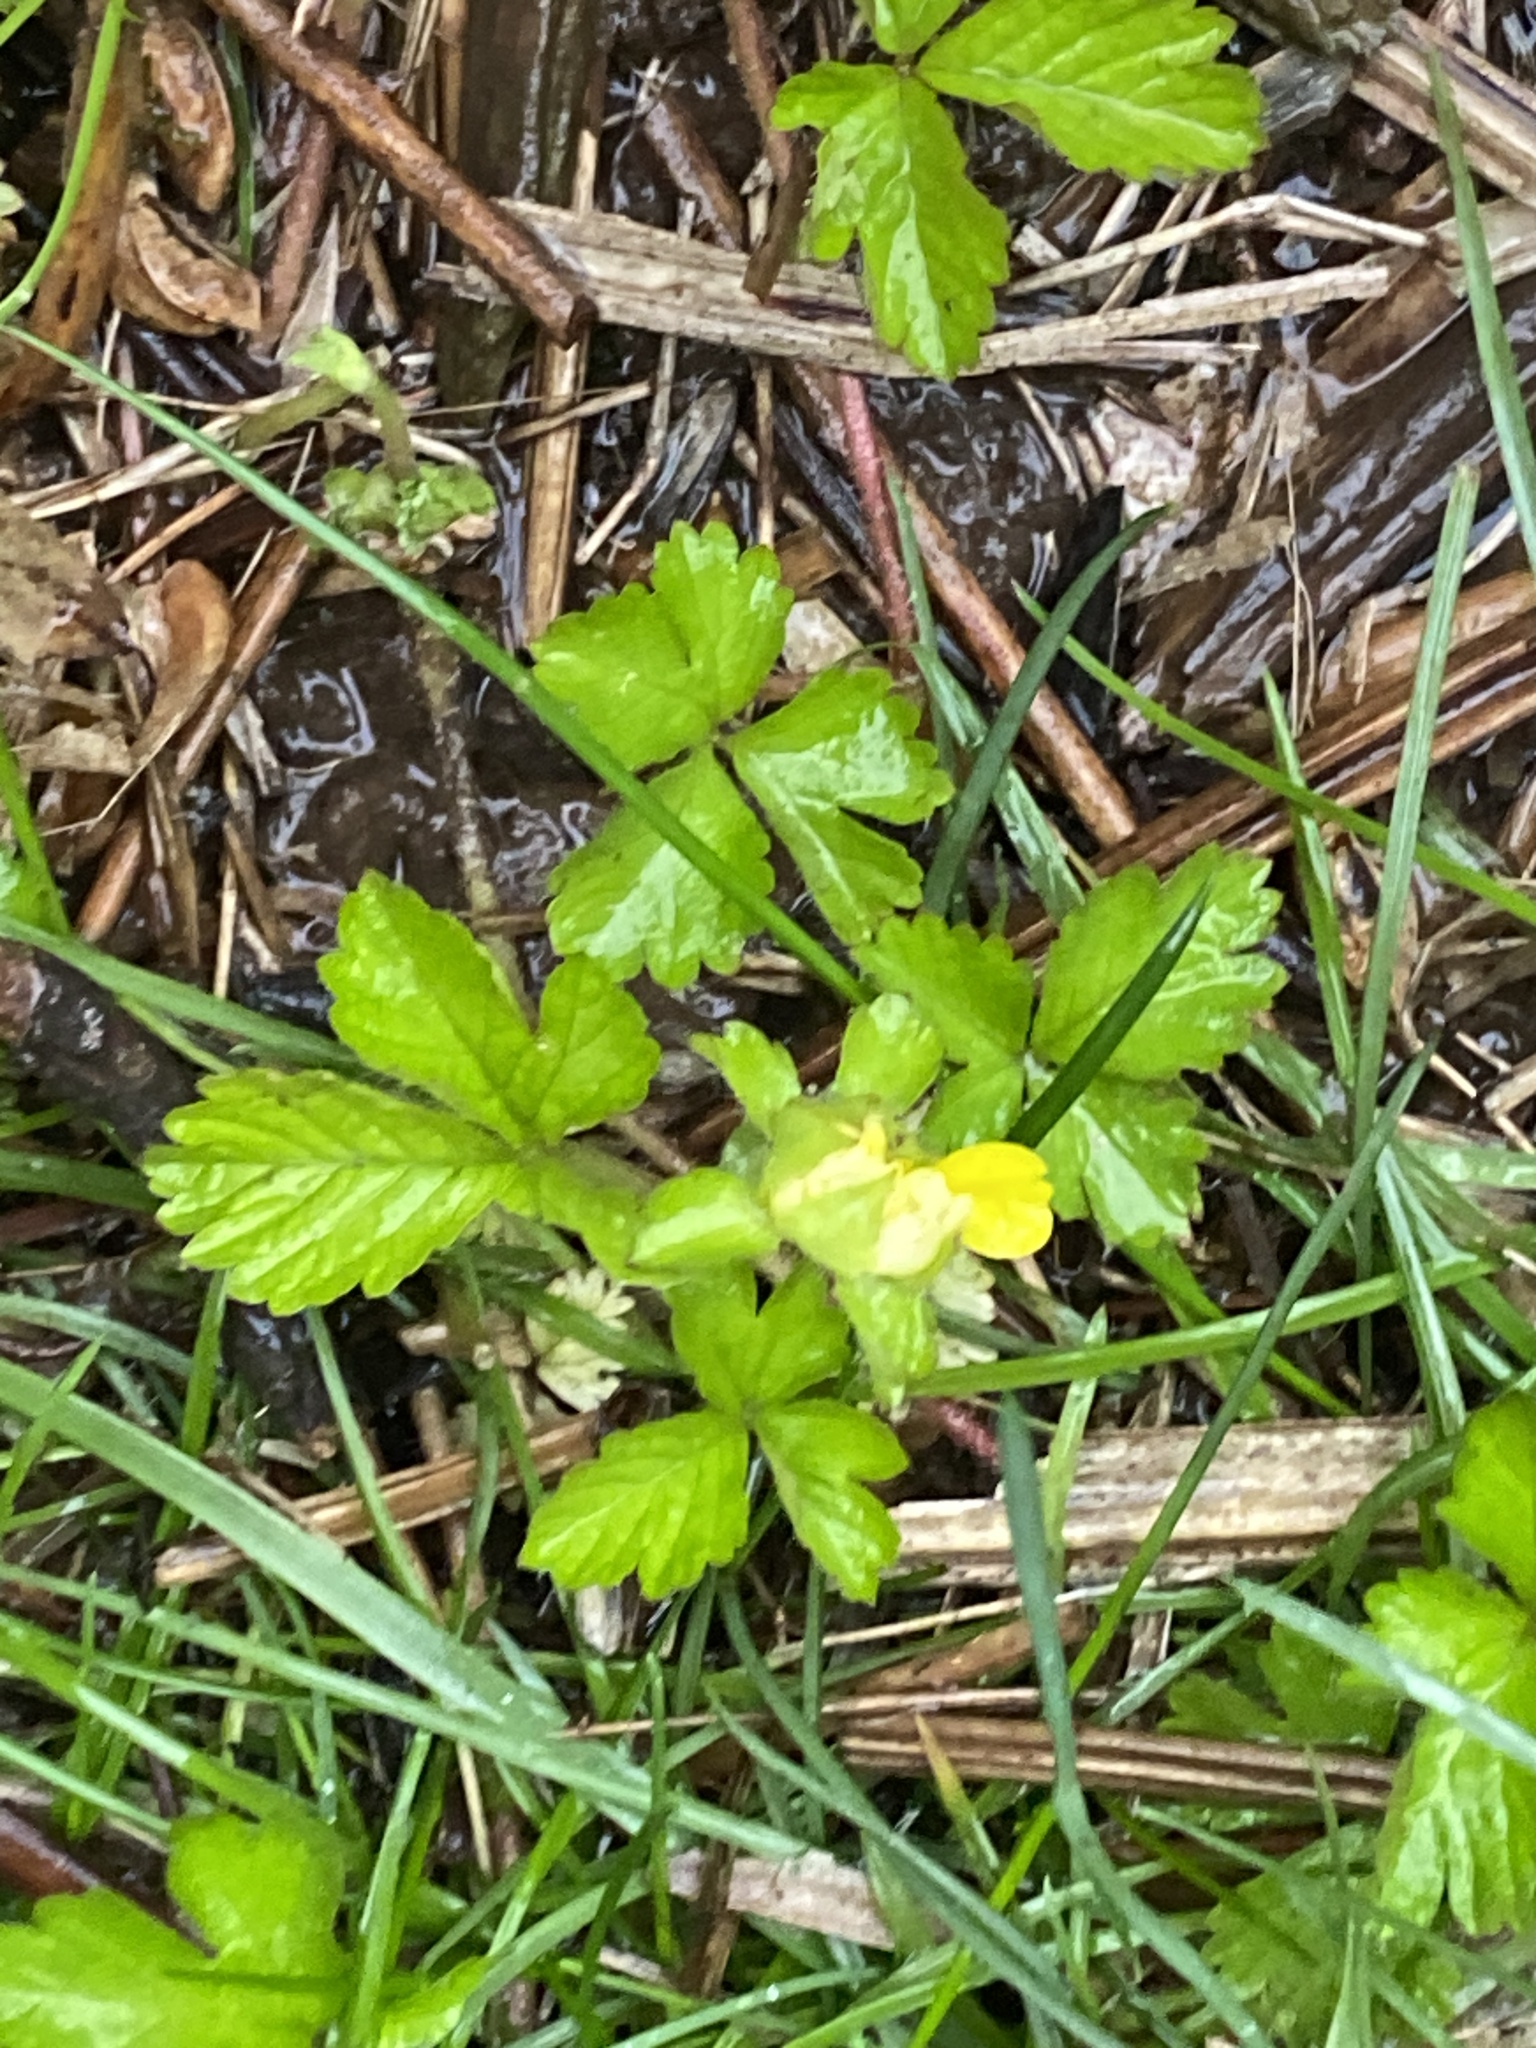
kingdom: Plantae
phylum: Tracheophyta
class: Magnoliopsida
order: Rosales
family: Rosaceae
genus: Potentilla
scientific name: Potentilla indica
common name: Yellow-flowered strawberry
